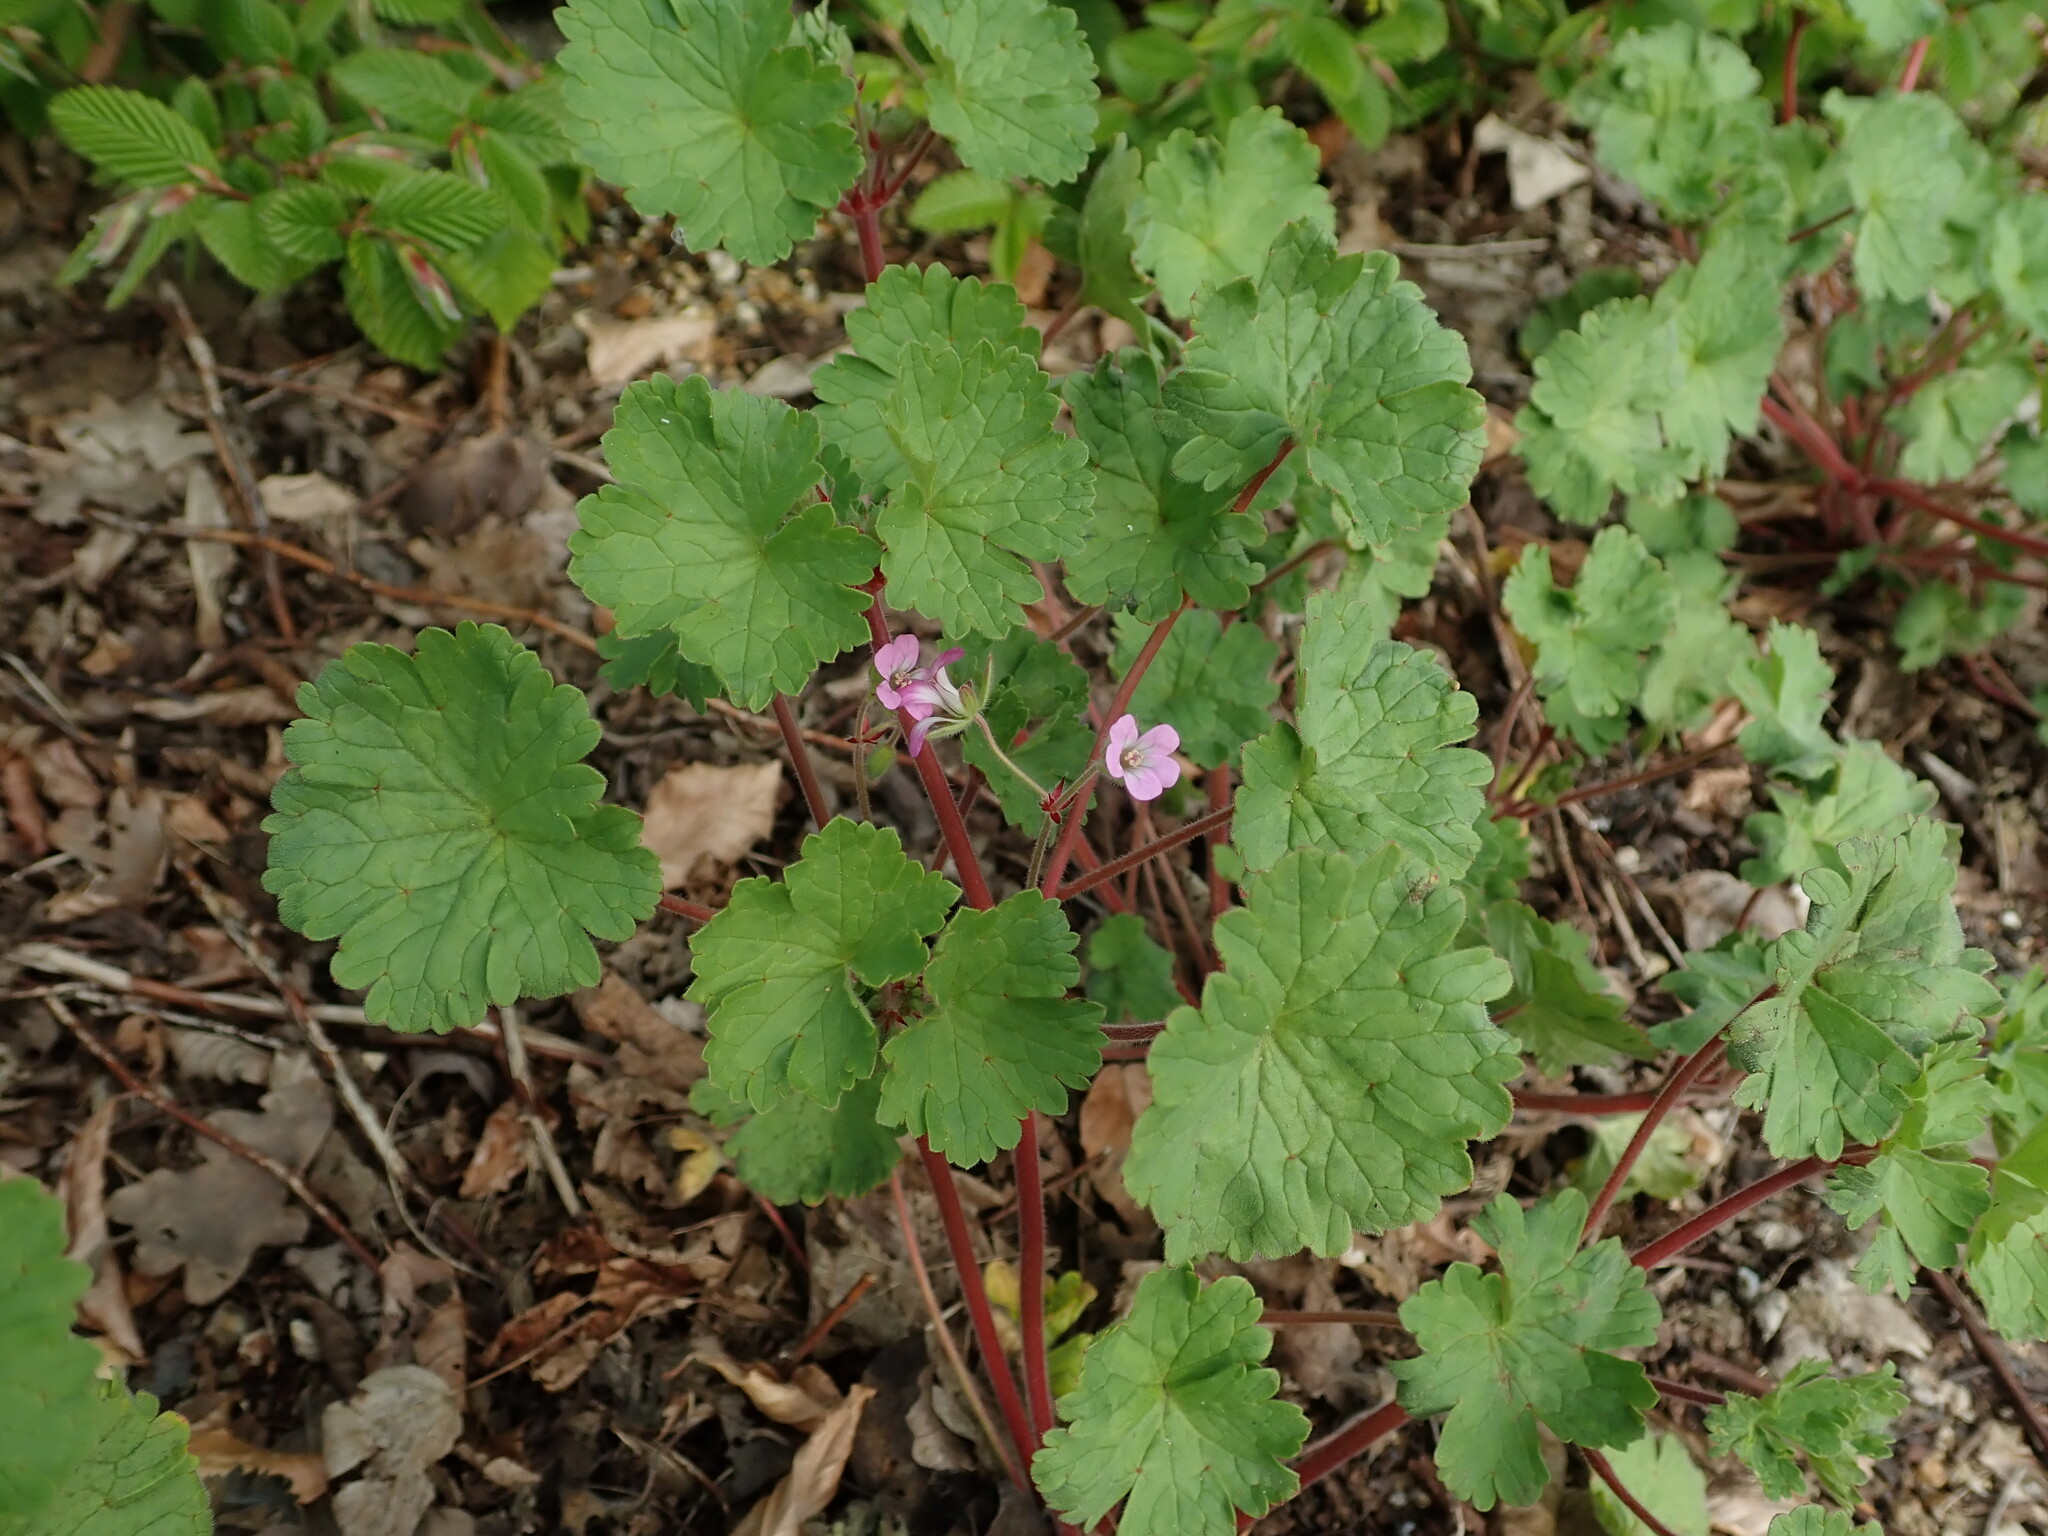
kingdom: Plantae
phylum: Tracheophyta
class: Magnoliopsida
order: Geraniales
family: Geraniaceae
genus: Geranium
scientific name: Geranium rotundifolium
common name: Round-leaved crane's-bill
